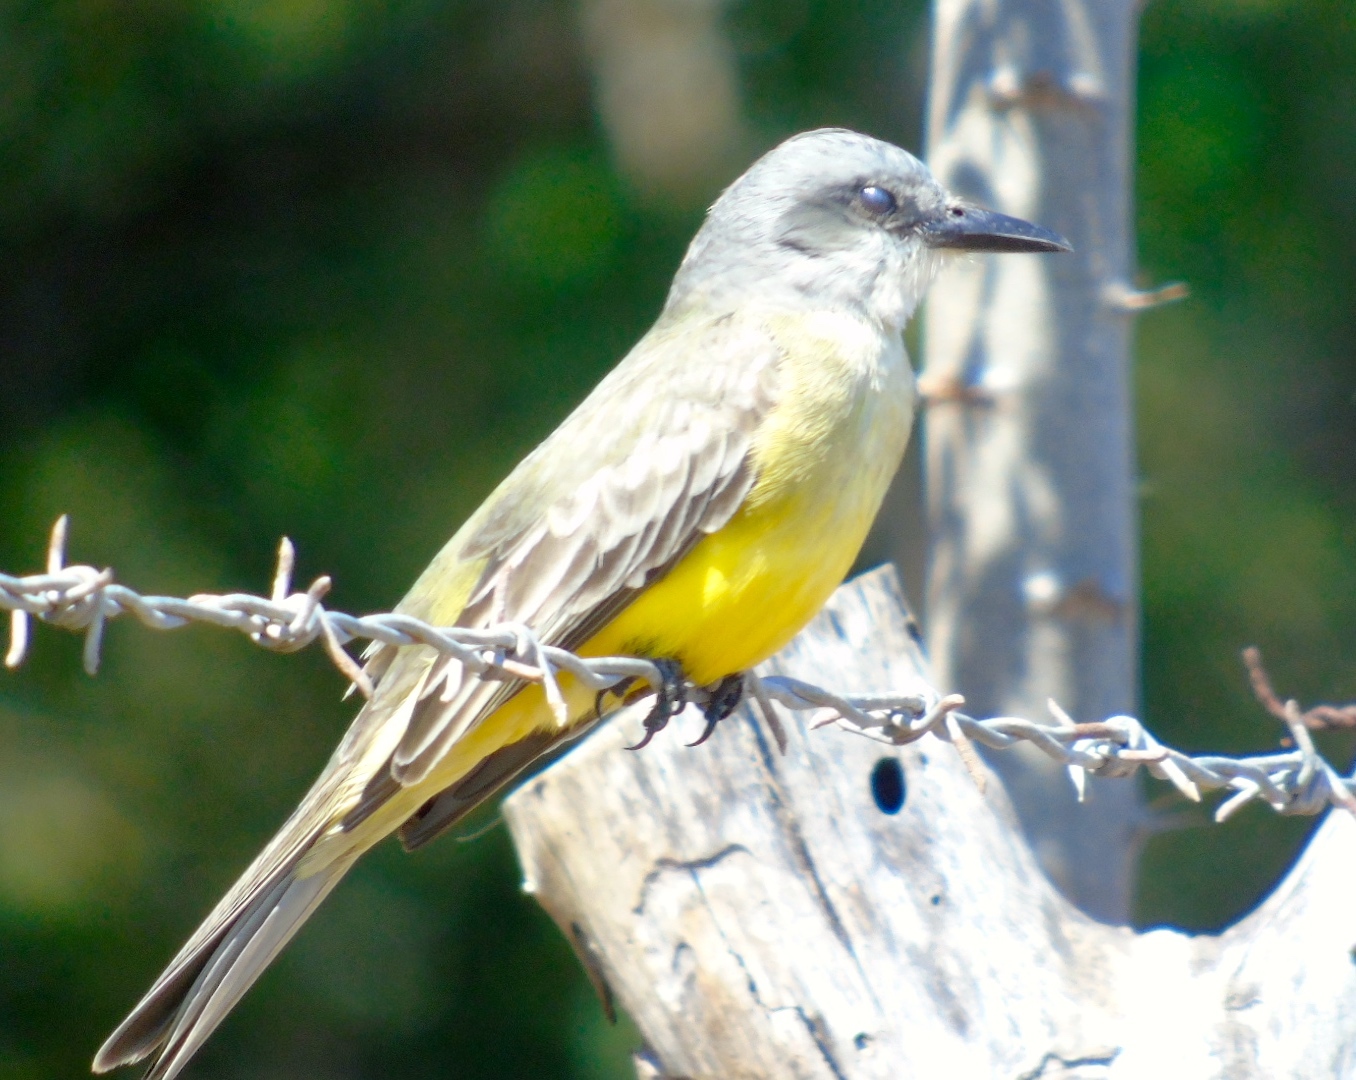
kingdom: Animalia
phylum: Chordata
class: Aves
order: Passeriformes
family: Tyrannidae
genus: Tyrannus
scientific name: Tyrannus melancholicus
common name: Tropical kingbird
